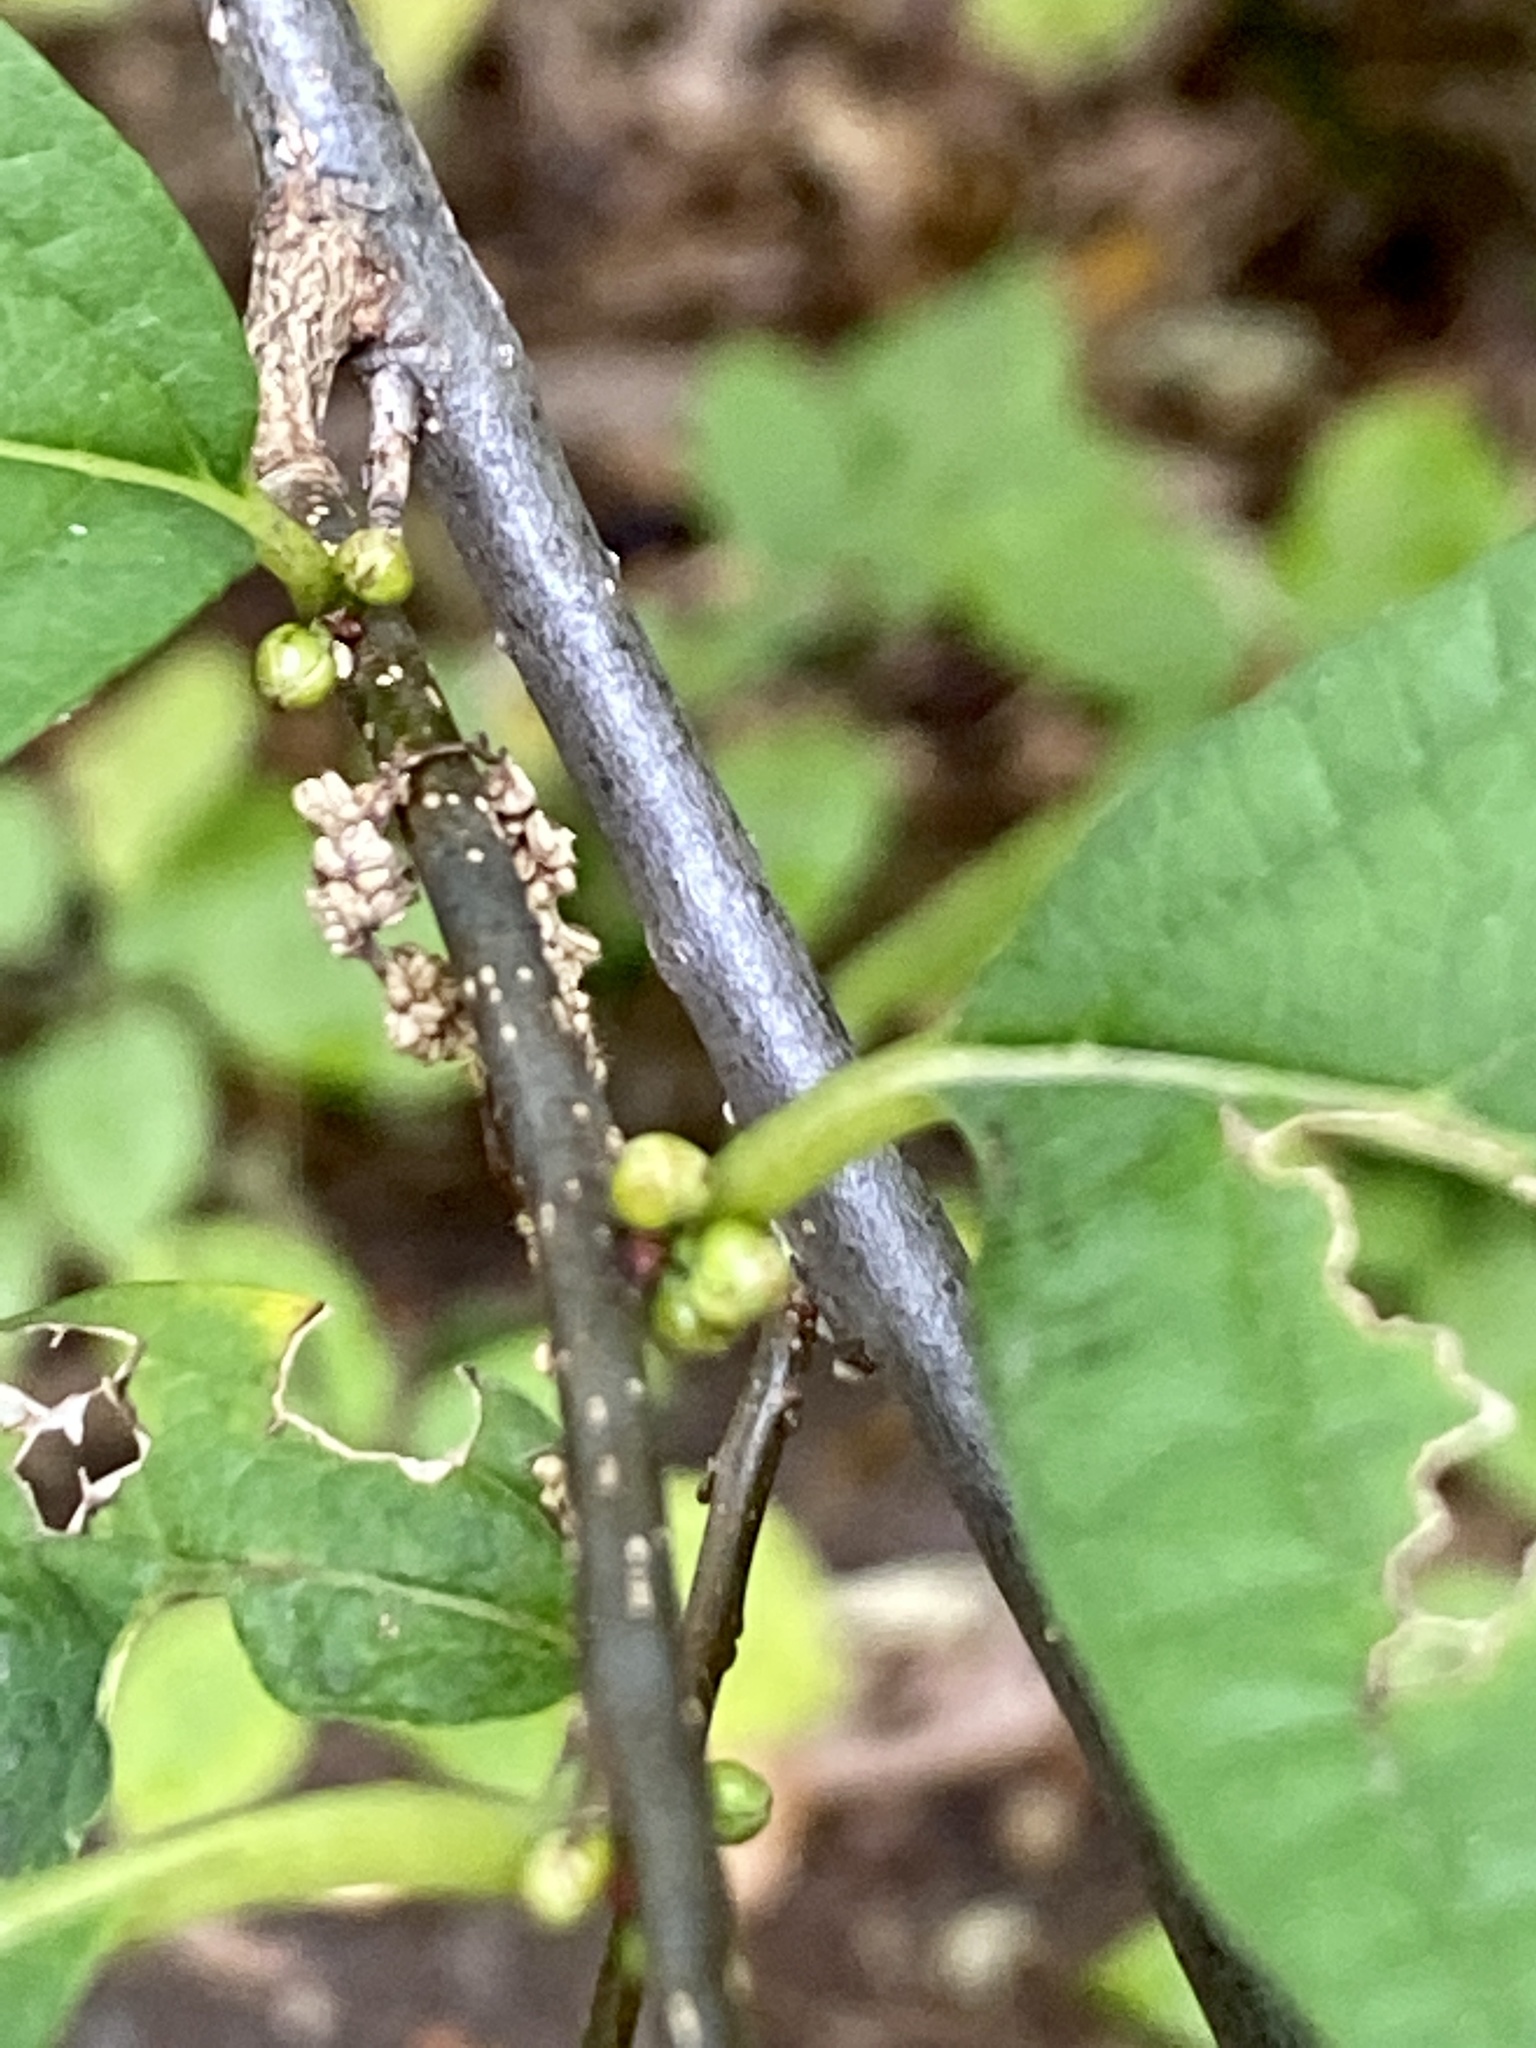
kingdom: Plantae
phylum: Tracheophyta
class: Magnoliopsida
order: Laurales
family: Lauraceae
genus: Lindera
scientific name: Lindera benzoin
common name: Spicebush
